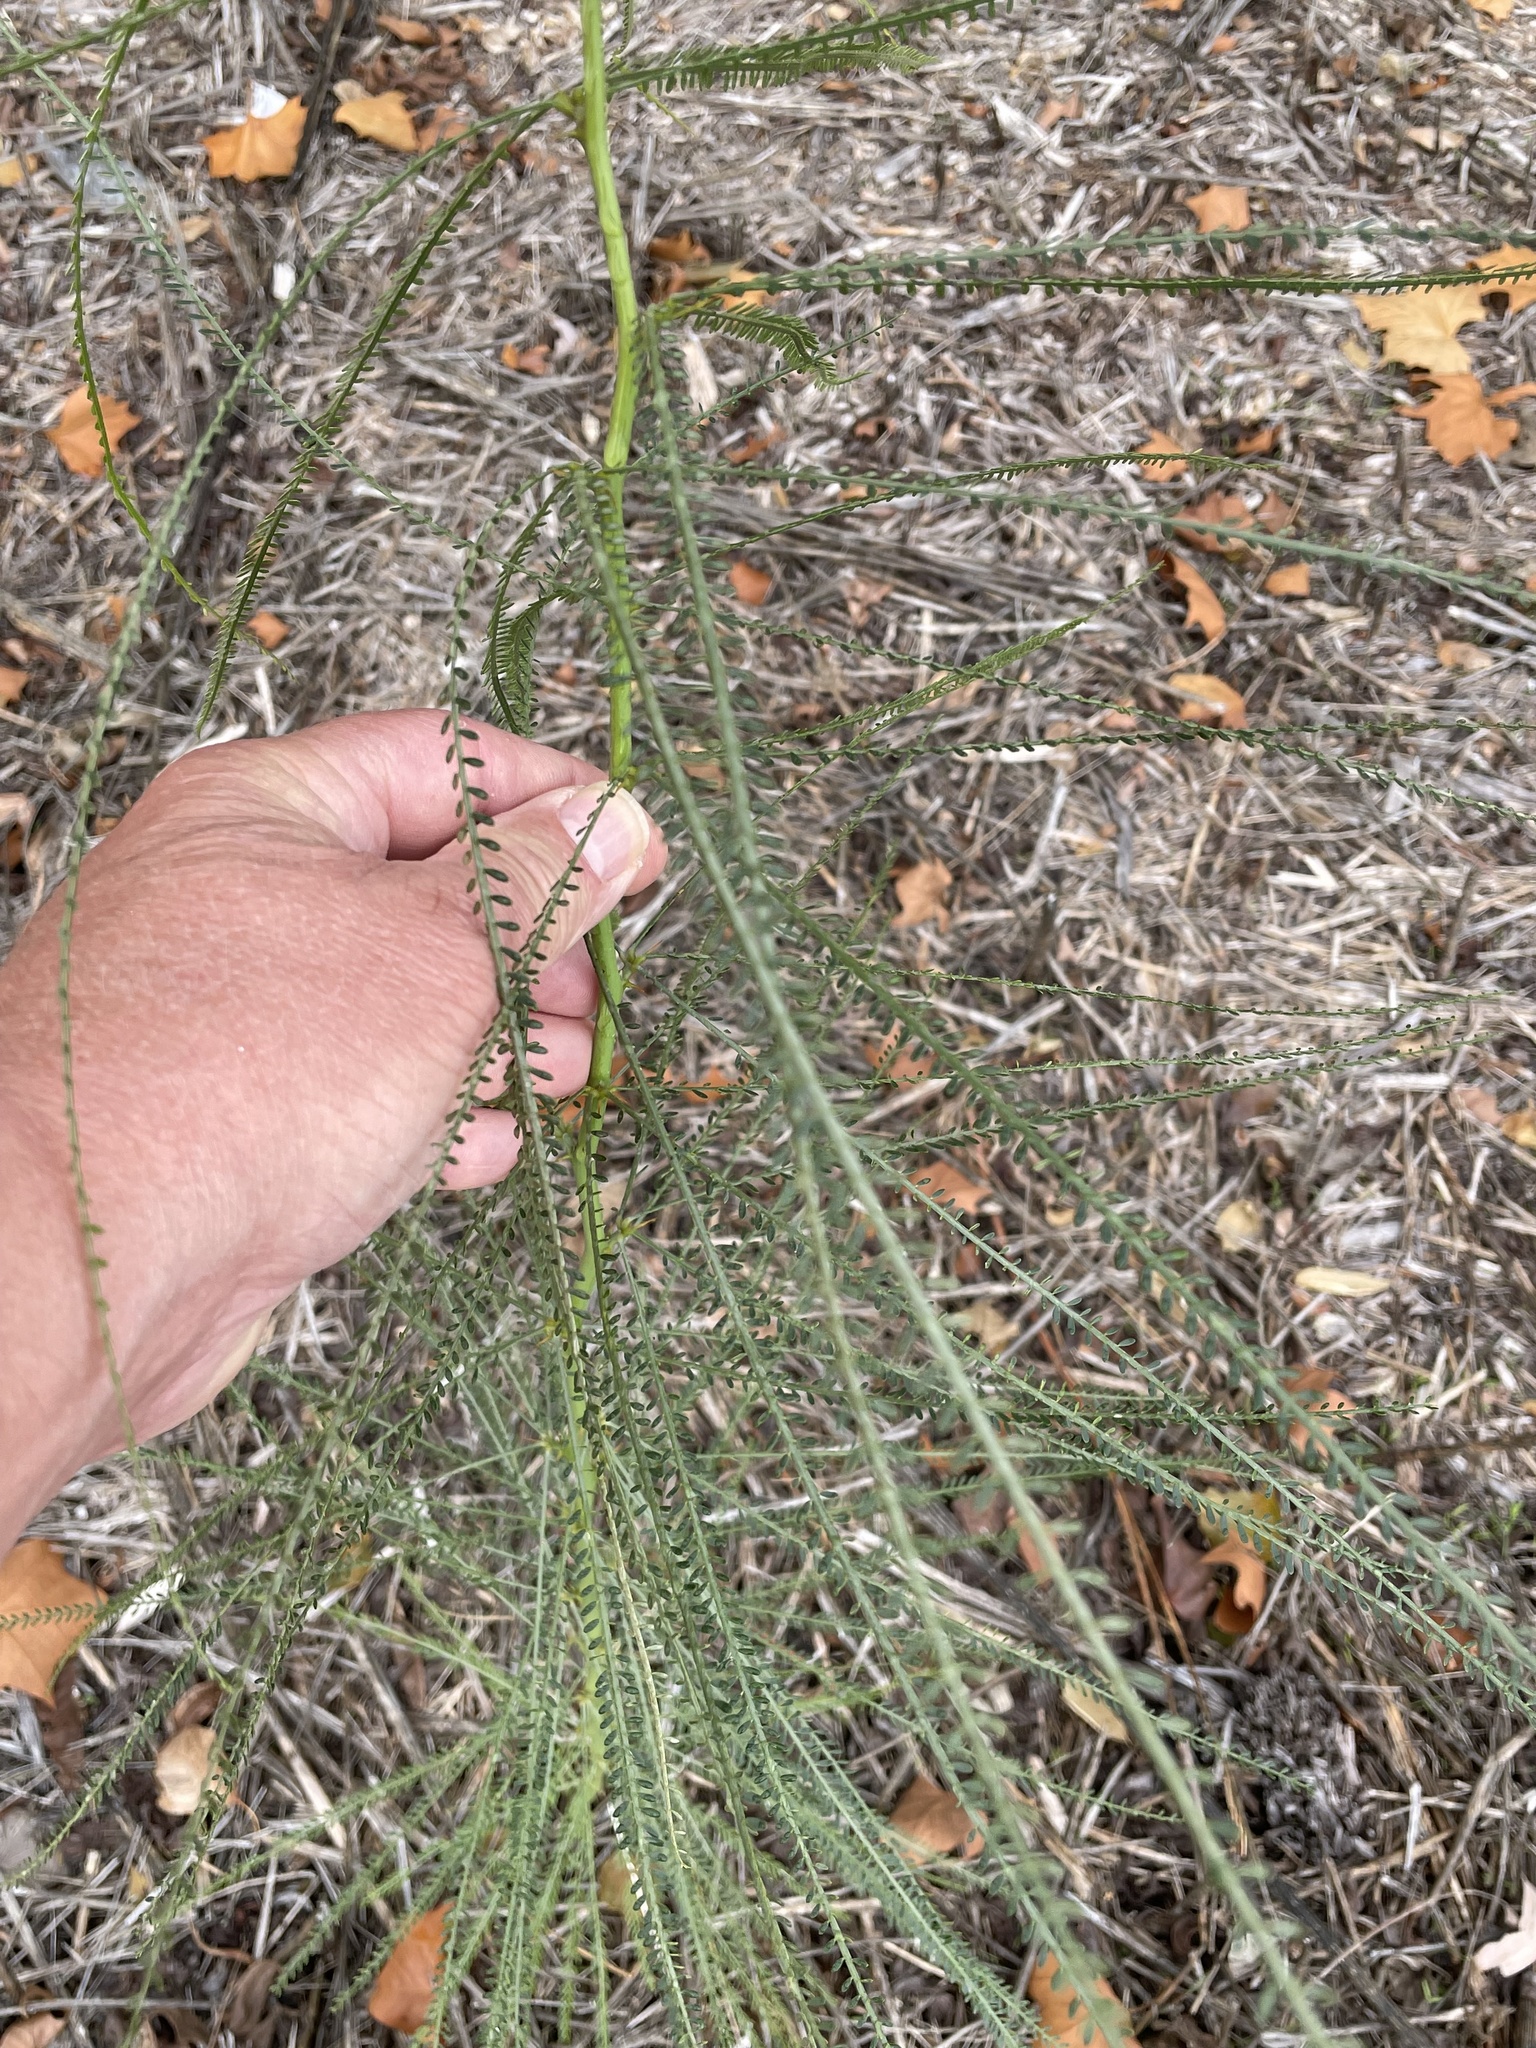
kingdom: Plantae
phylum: Tracheophyta
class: Magnoliopsida
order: Fabales
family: Fabaceae
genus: Parkinsonia
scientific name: Parkinsonia aculeata
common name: Jerusalem thorn
